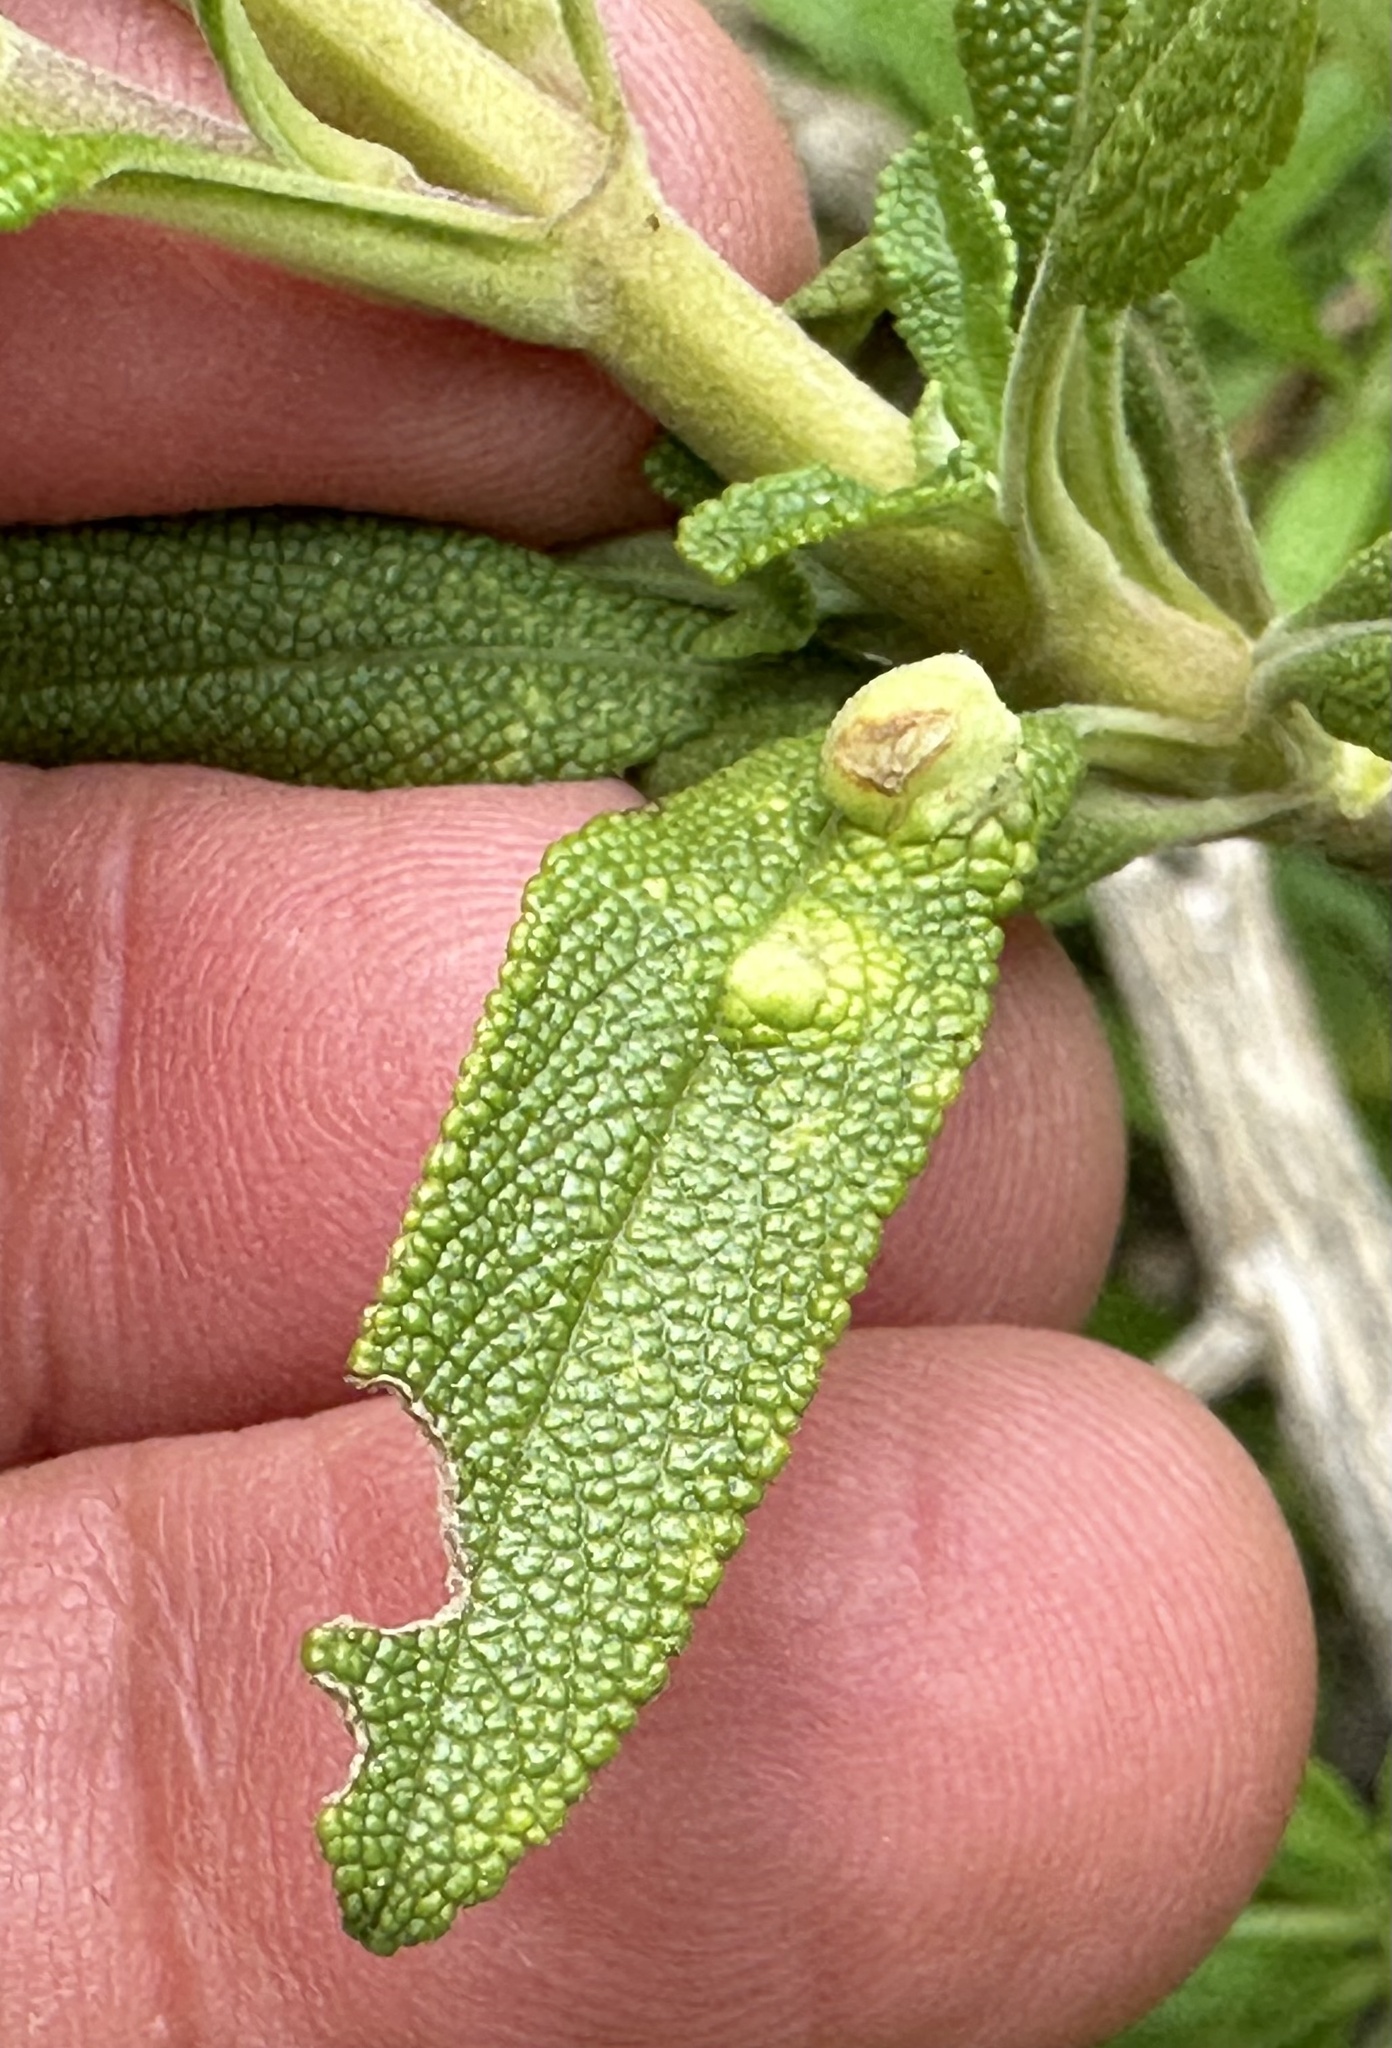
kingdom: Animalia
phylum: Arthropoda
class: Insecta
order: Diptera
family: Cecidomyiidae
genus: Rhopalomyia
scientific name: Rhopalomyia audibertiae
